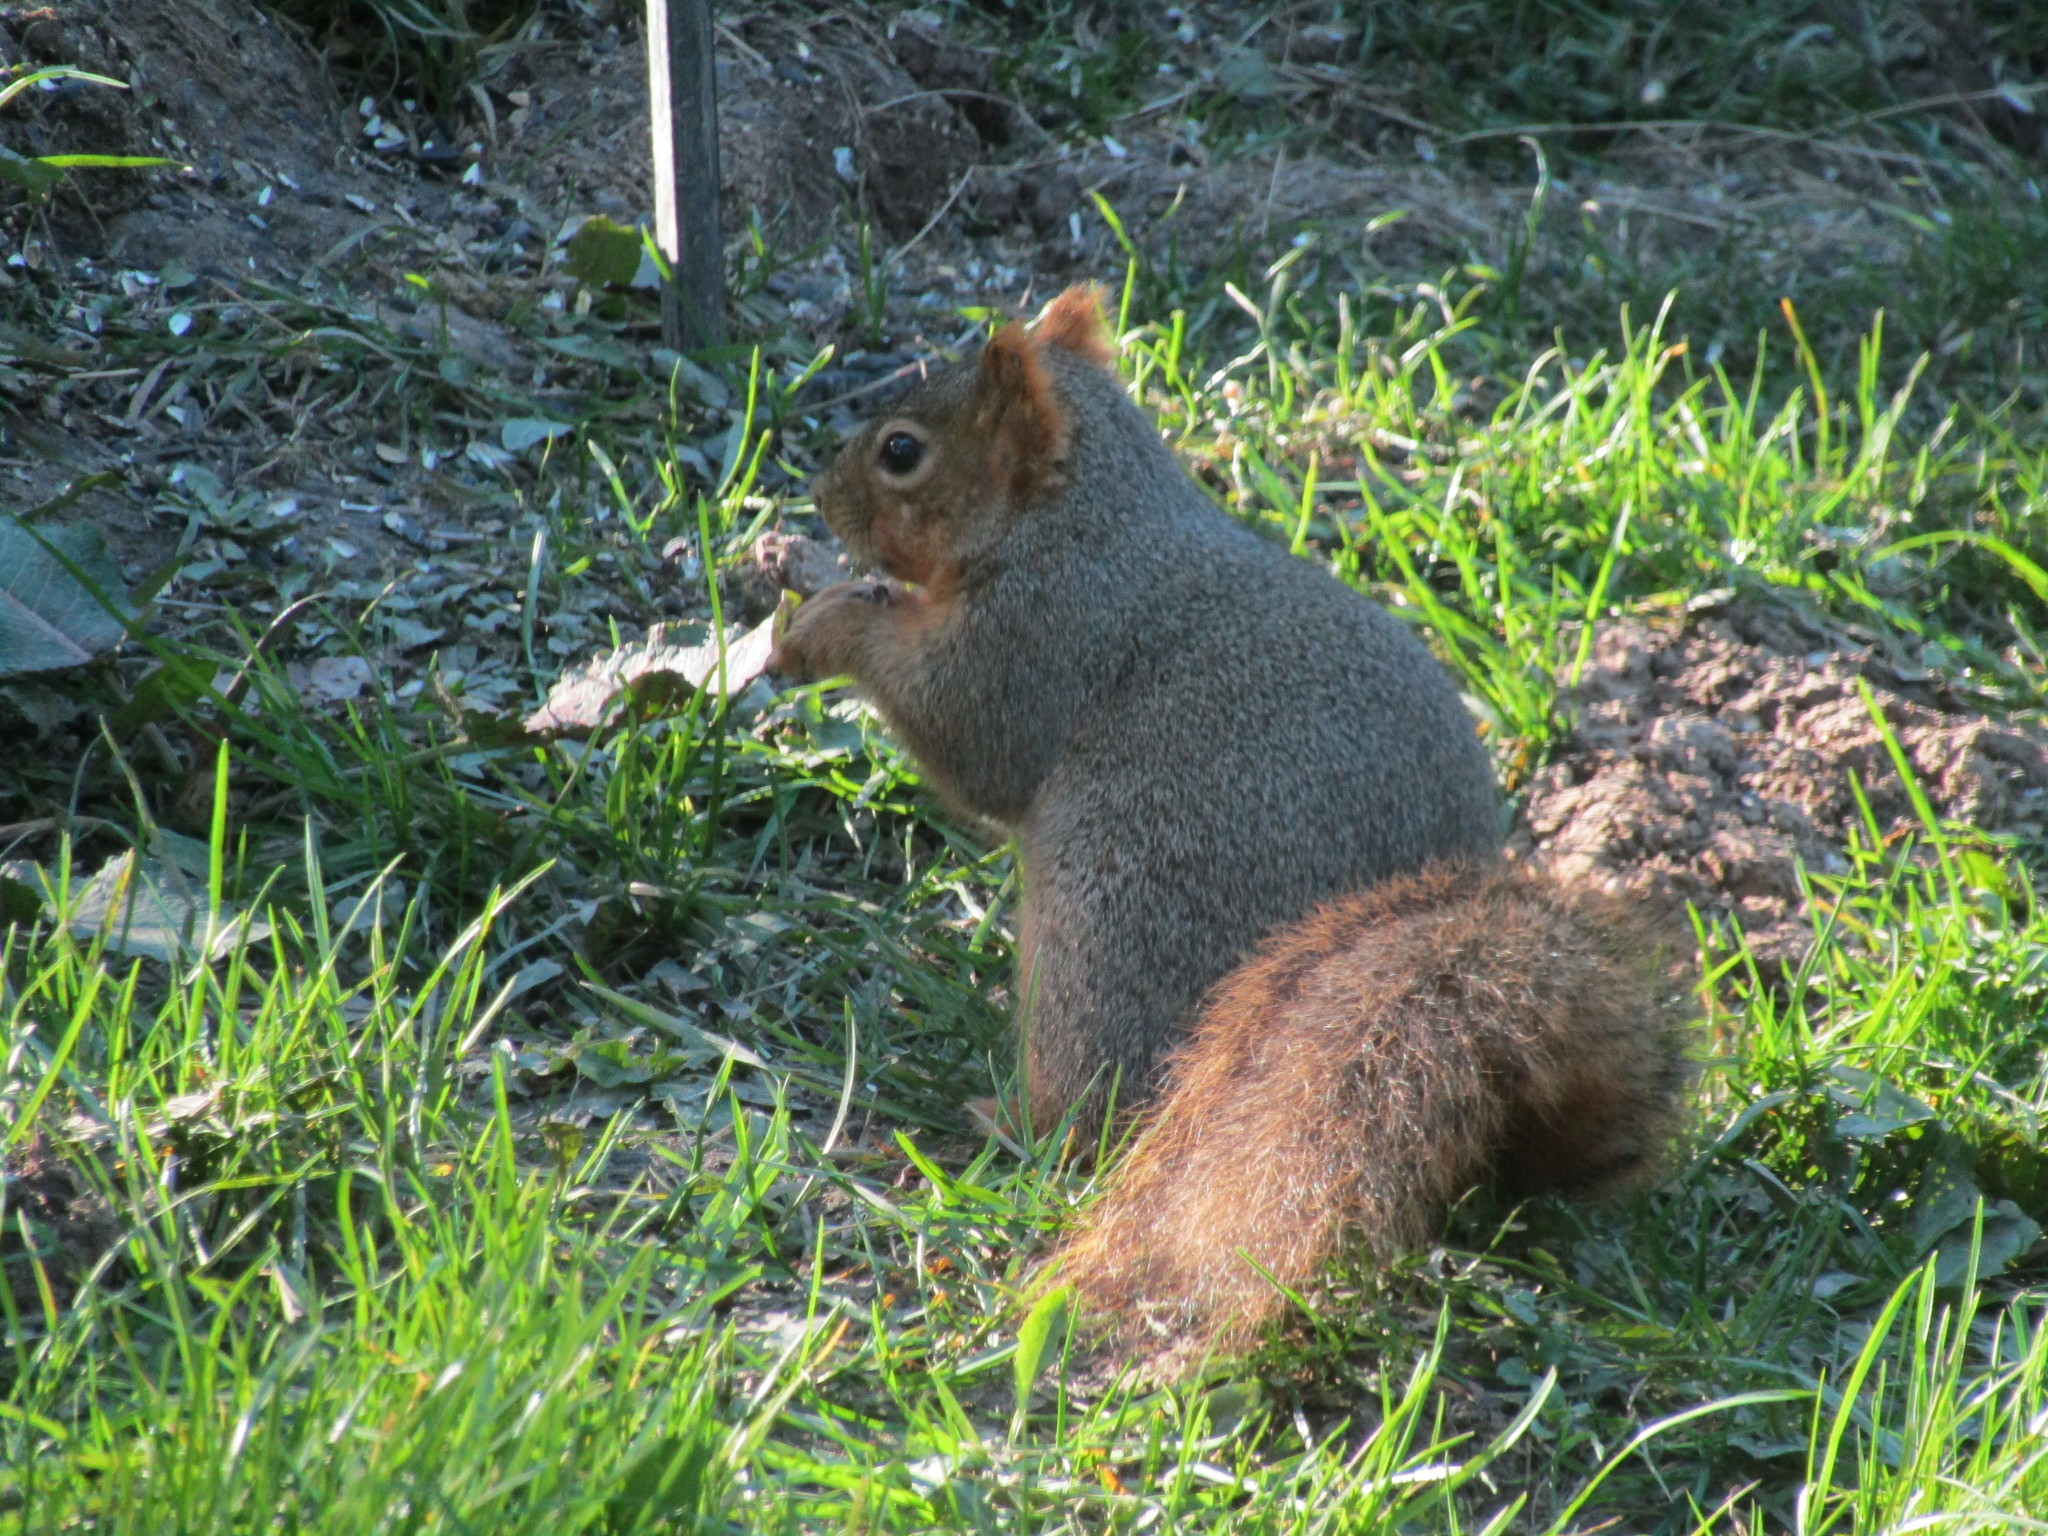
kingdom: Animalia
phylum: Chordata
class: Mammalia
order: Rodentia
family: Sciuridae
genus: Sciurus
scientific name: Sciurus niger
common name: Fox squirrel
